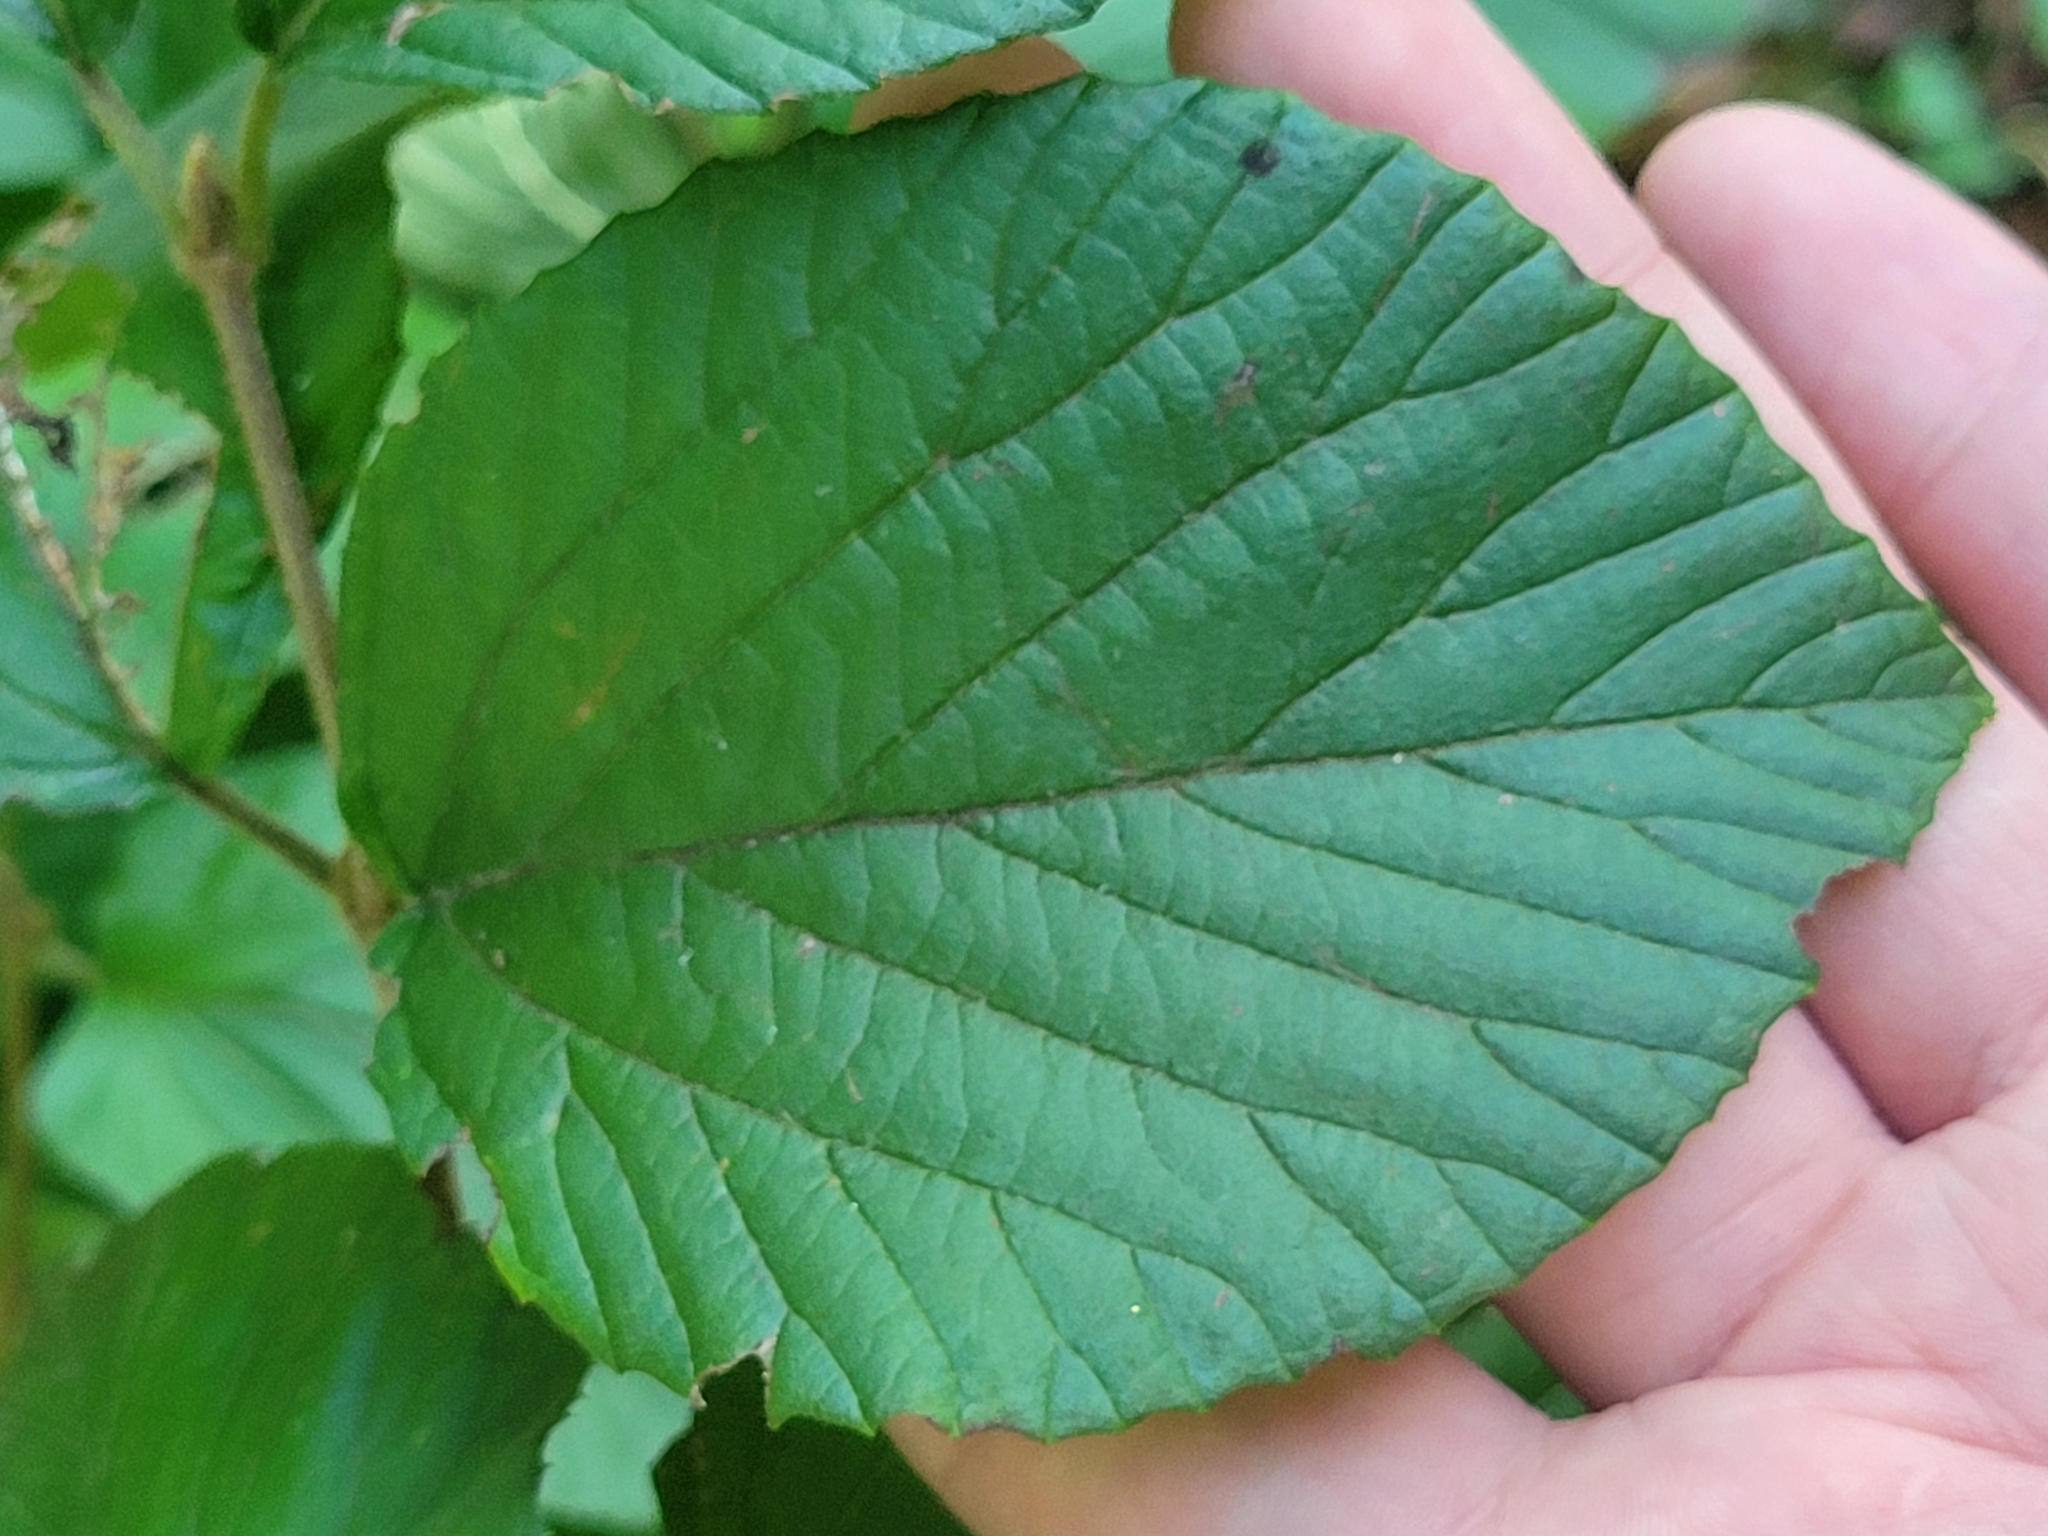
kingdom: Plantae
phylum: Tracheophyta
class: Magnoliopsida
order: Dipsacales
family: Viburnaceae
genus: Viburnum
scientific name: Viburnum dilatatum
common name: Linden arrowwood
